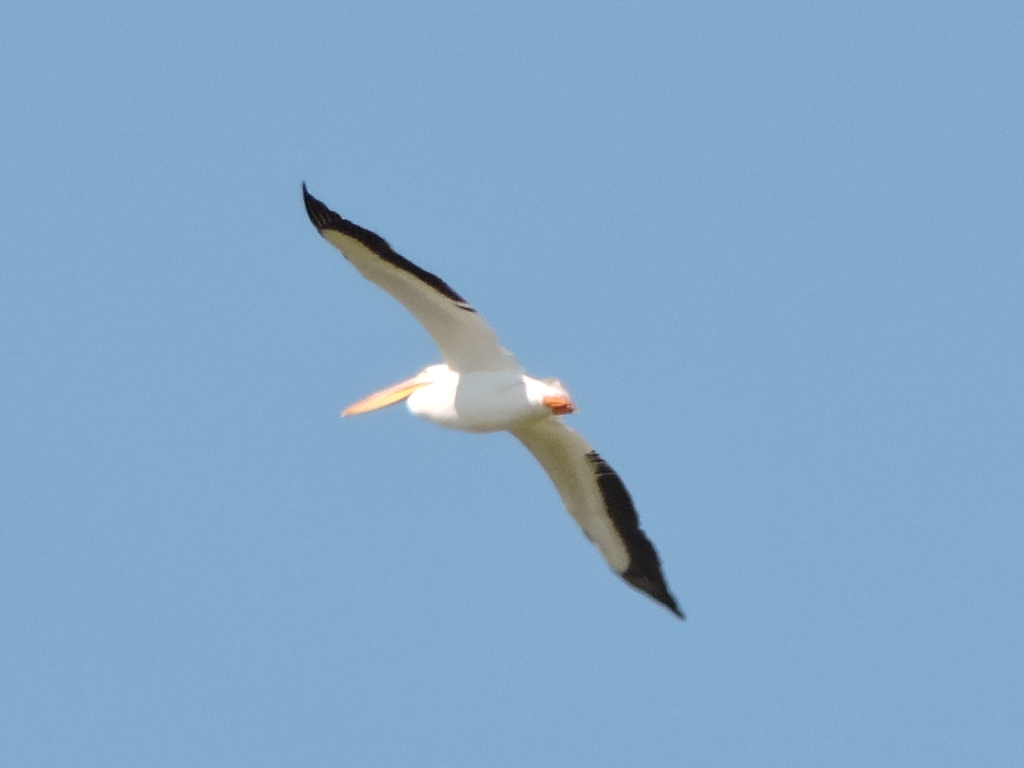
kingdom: Animalia
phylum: Chordata
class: Aves
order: Pelecaniformes
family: Pelecanidae
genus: Pelecanus
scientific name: Pelecanus erythrorhynchos
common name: American white pelican
